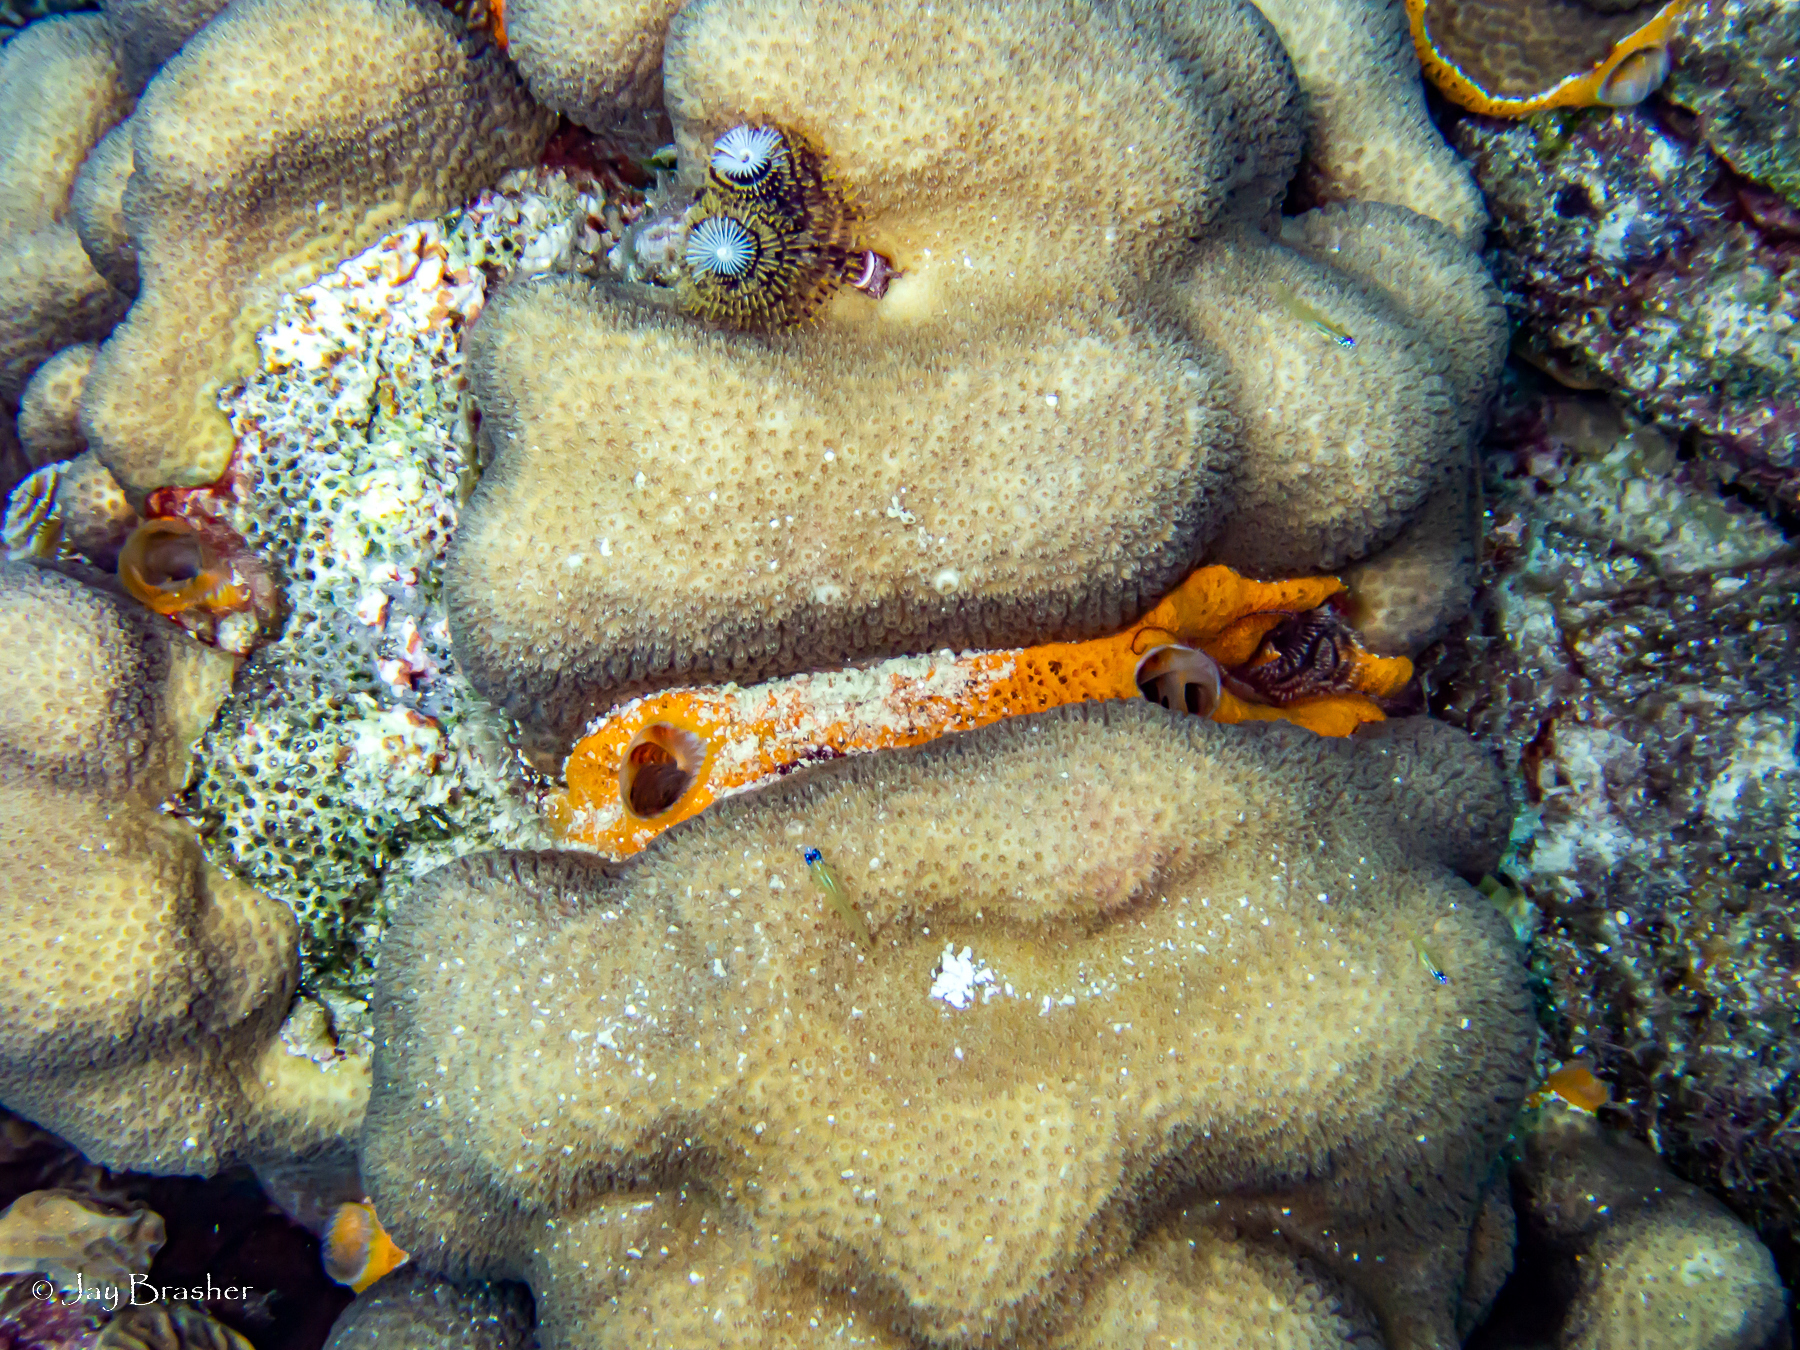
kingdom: Animalia
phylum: Porifera
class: Demospongiae
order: Poecilosclerida
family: Mycalidae
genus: Mycale
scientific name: Mycale laevis
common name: Orange icing sponge
